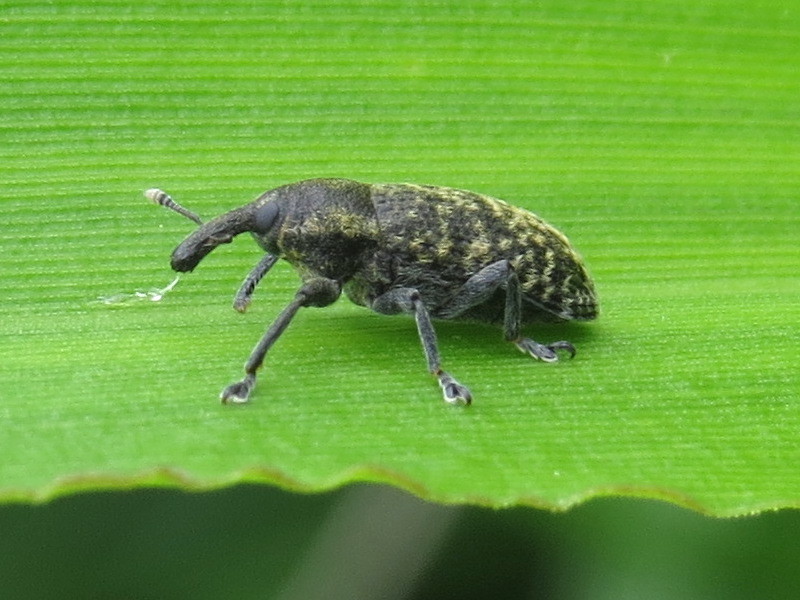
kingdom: Animalia
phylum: Arthropoda
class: Insecta
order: Coleoptera
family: Curculionidae
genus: Larinus
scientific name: Larinus carlinae
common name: Weevil
